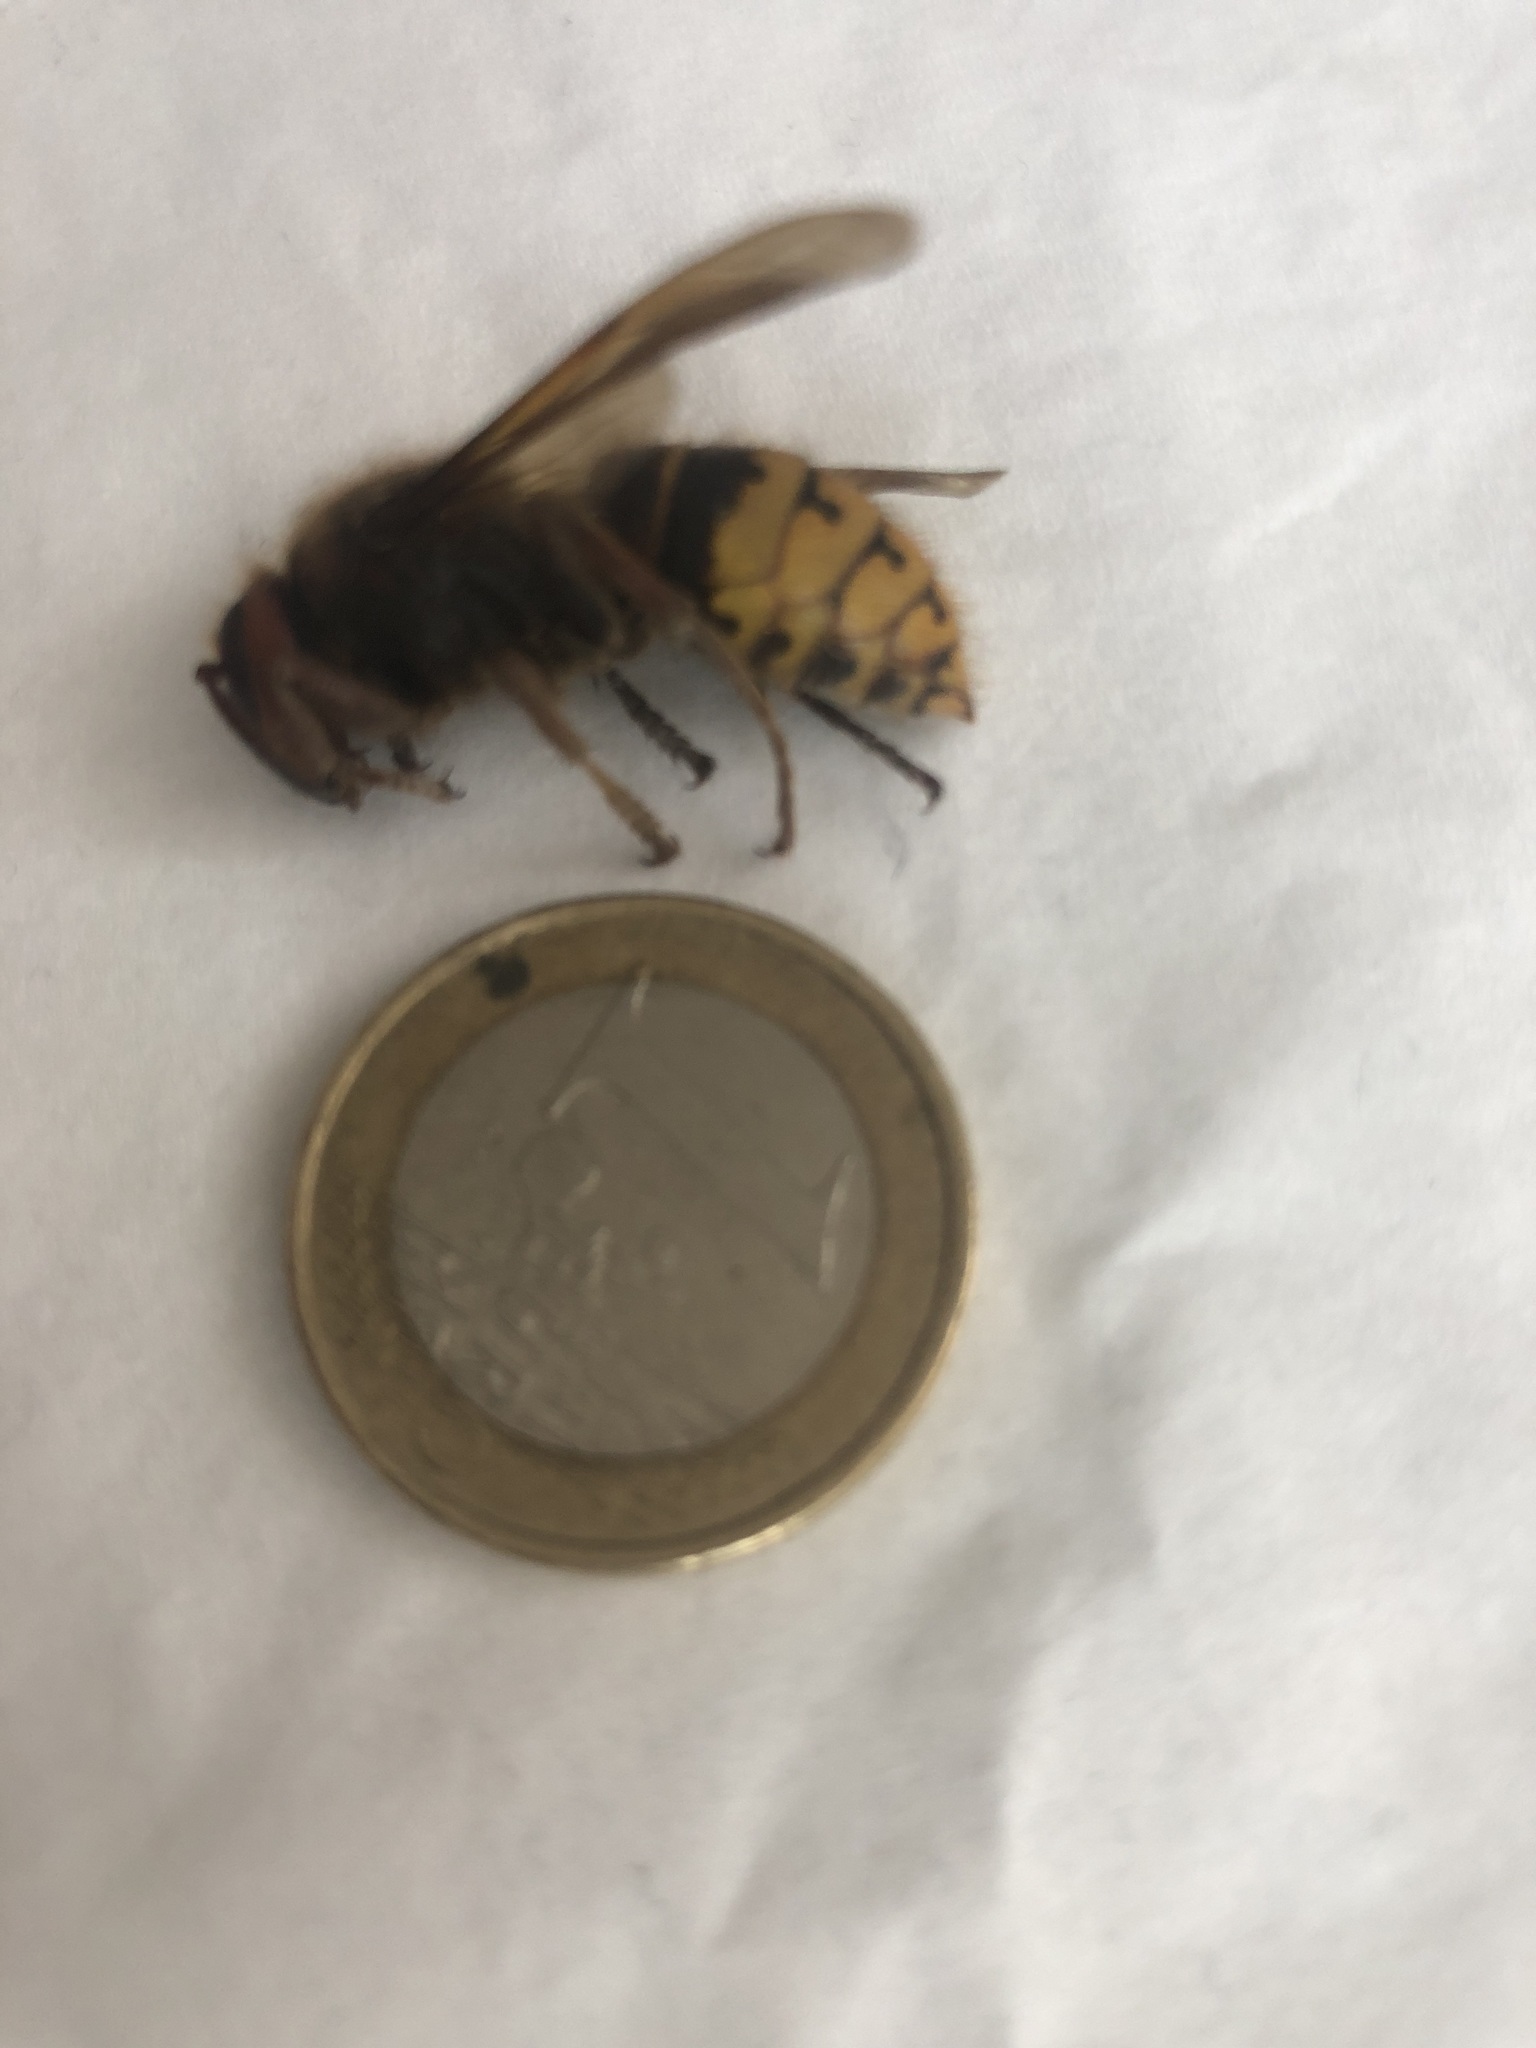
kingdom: Animalia
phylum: Arthropoda
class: Insecta
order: Hymenoptera
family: Vespidae
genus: Vespa
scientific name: Vespa crabro
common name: Hornet
